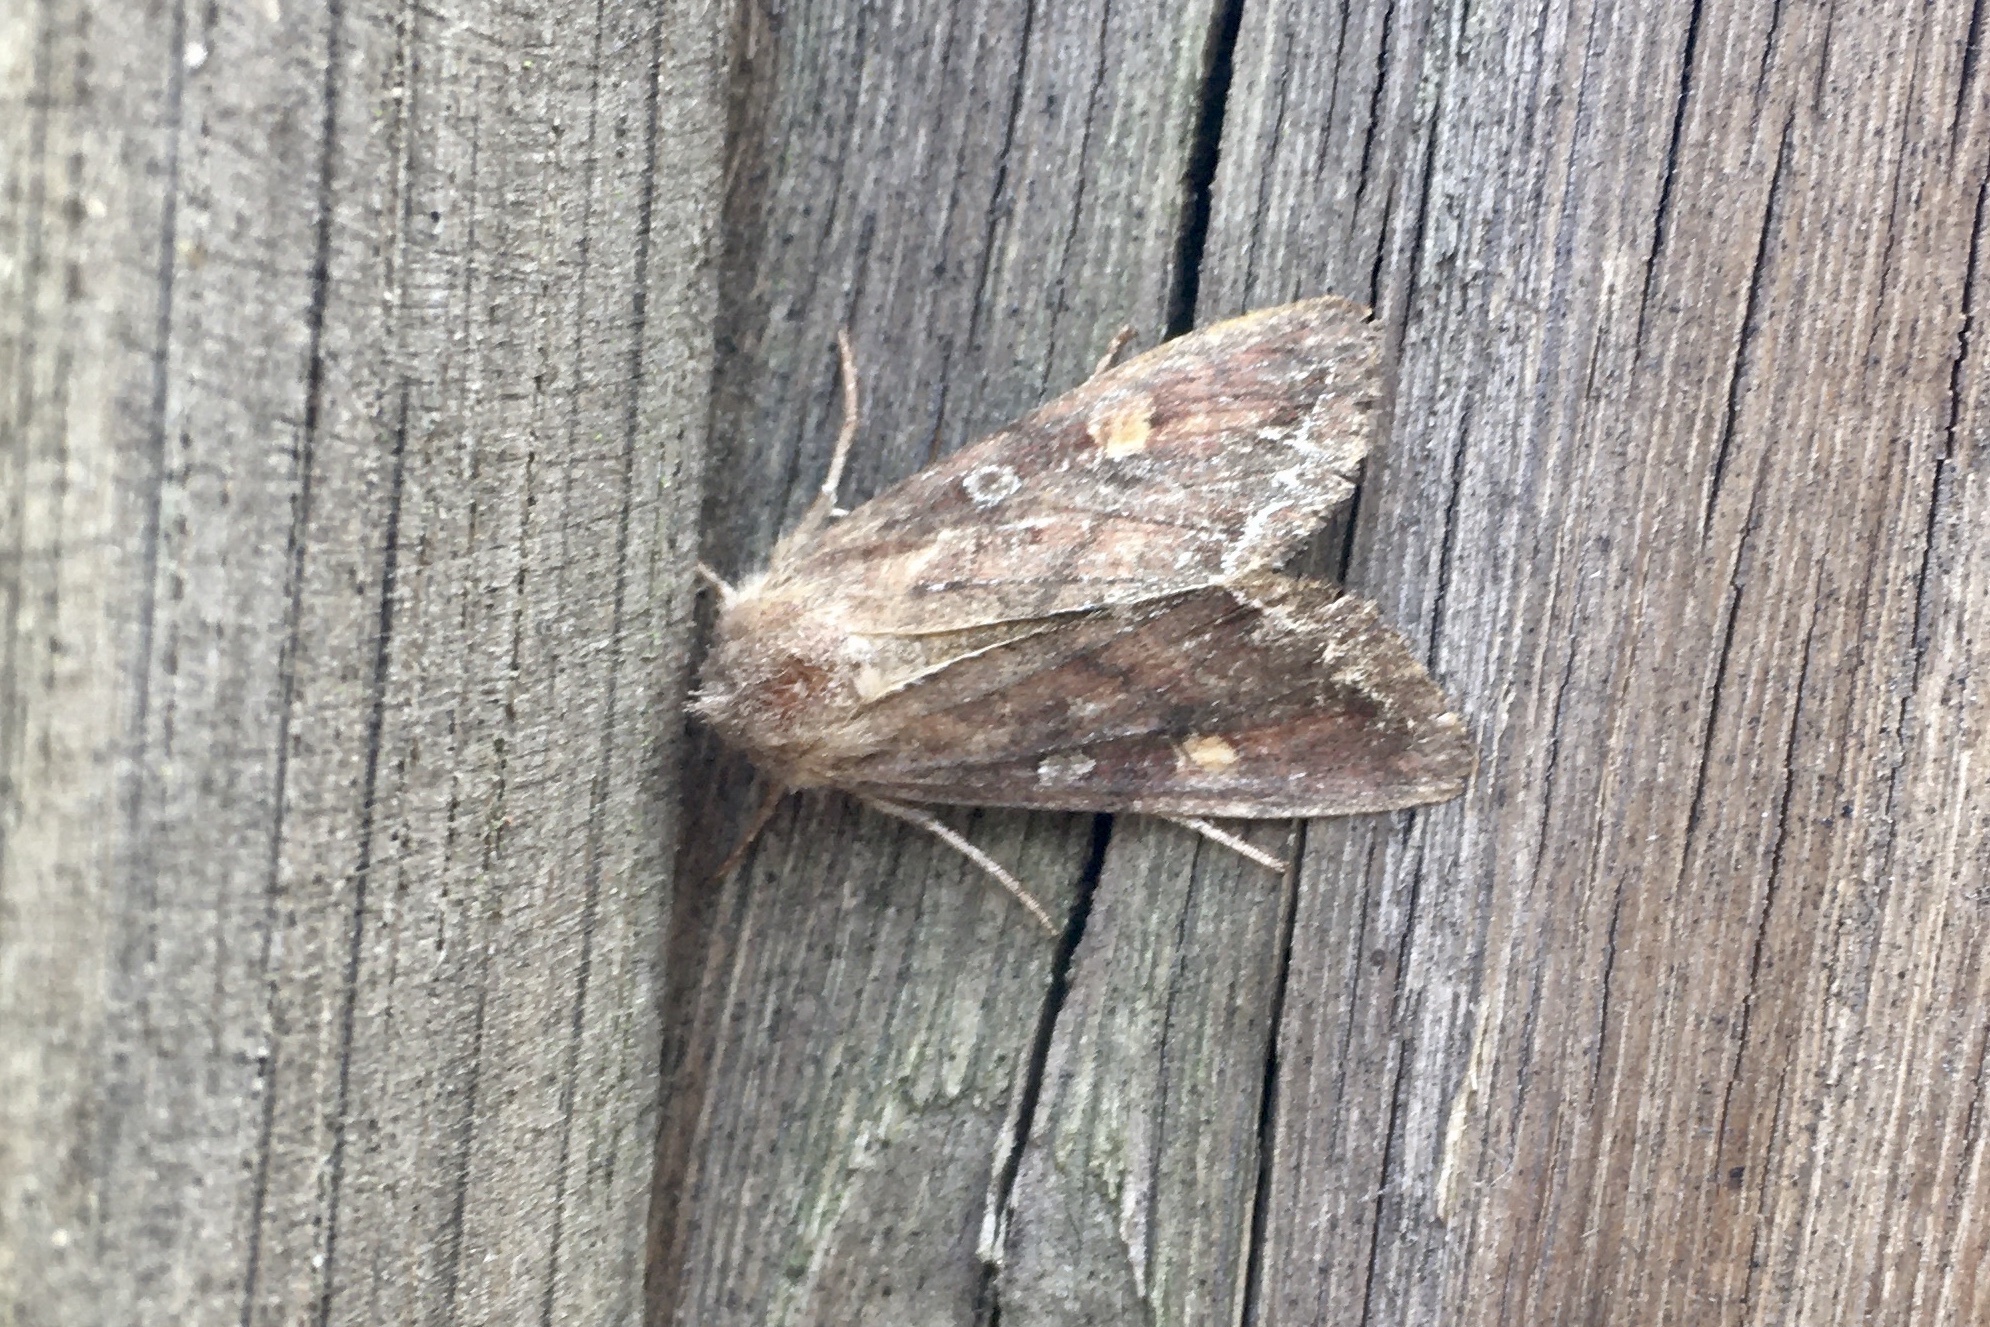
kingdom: Animalia
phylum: Arthropoda
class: Insecta
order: Lepidoptera
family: Noctuidae
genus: Lacanobia
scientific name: Lacanobia oleracea
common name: Bright-line brown-eye
